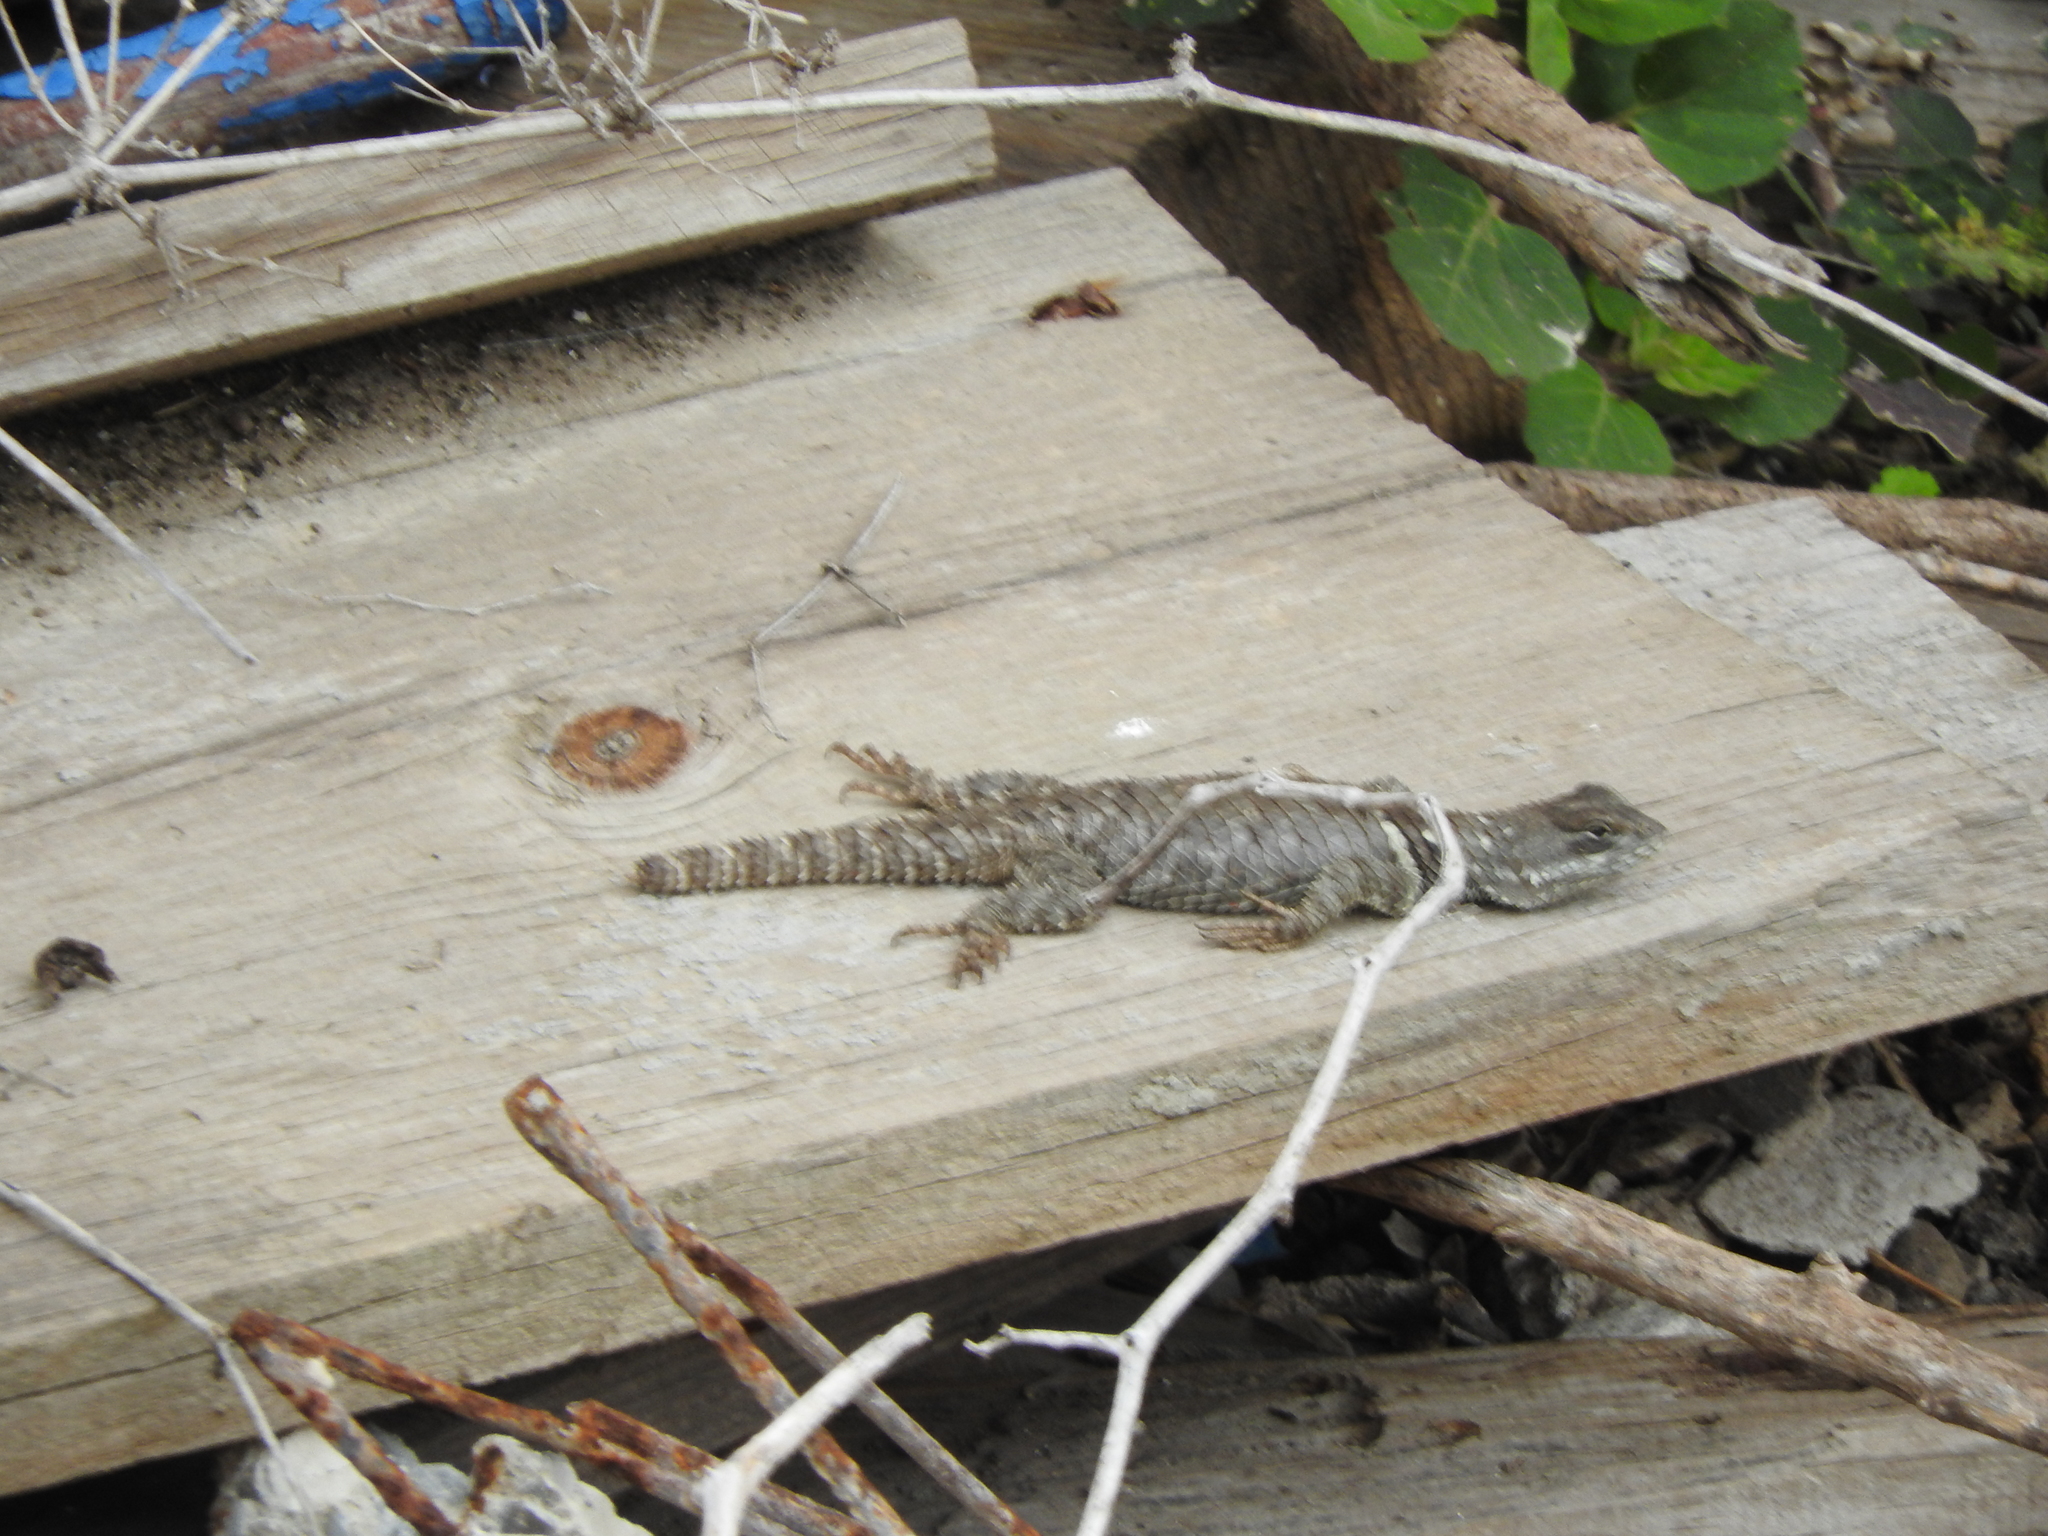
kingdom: Animalia
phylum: Chordata
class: Squamata
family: Phrynosomatidae
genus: Sceloporus
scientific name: Sceloporus torquatus
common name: Central plateau torquate lizard [melanogaster]
